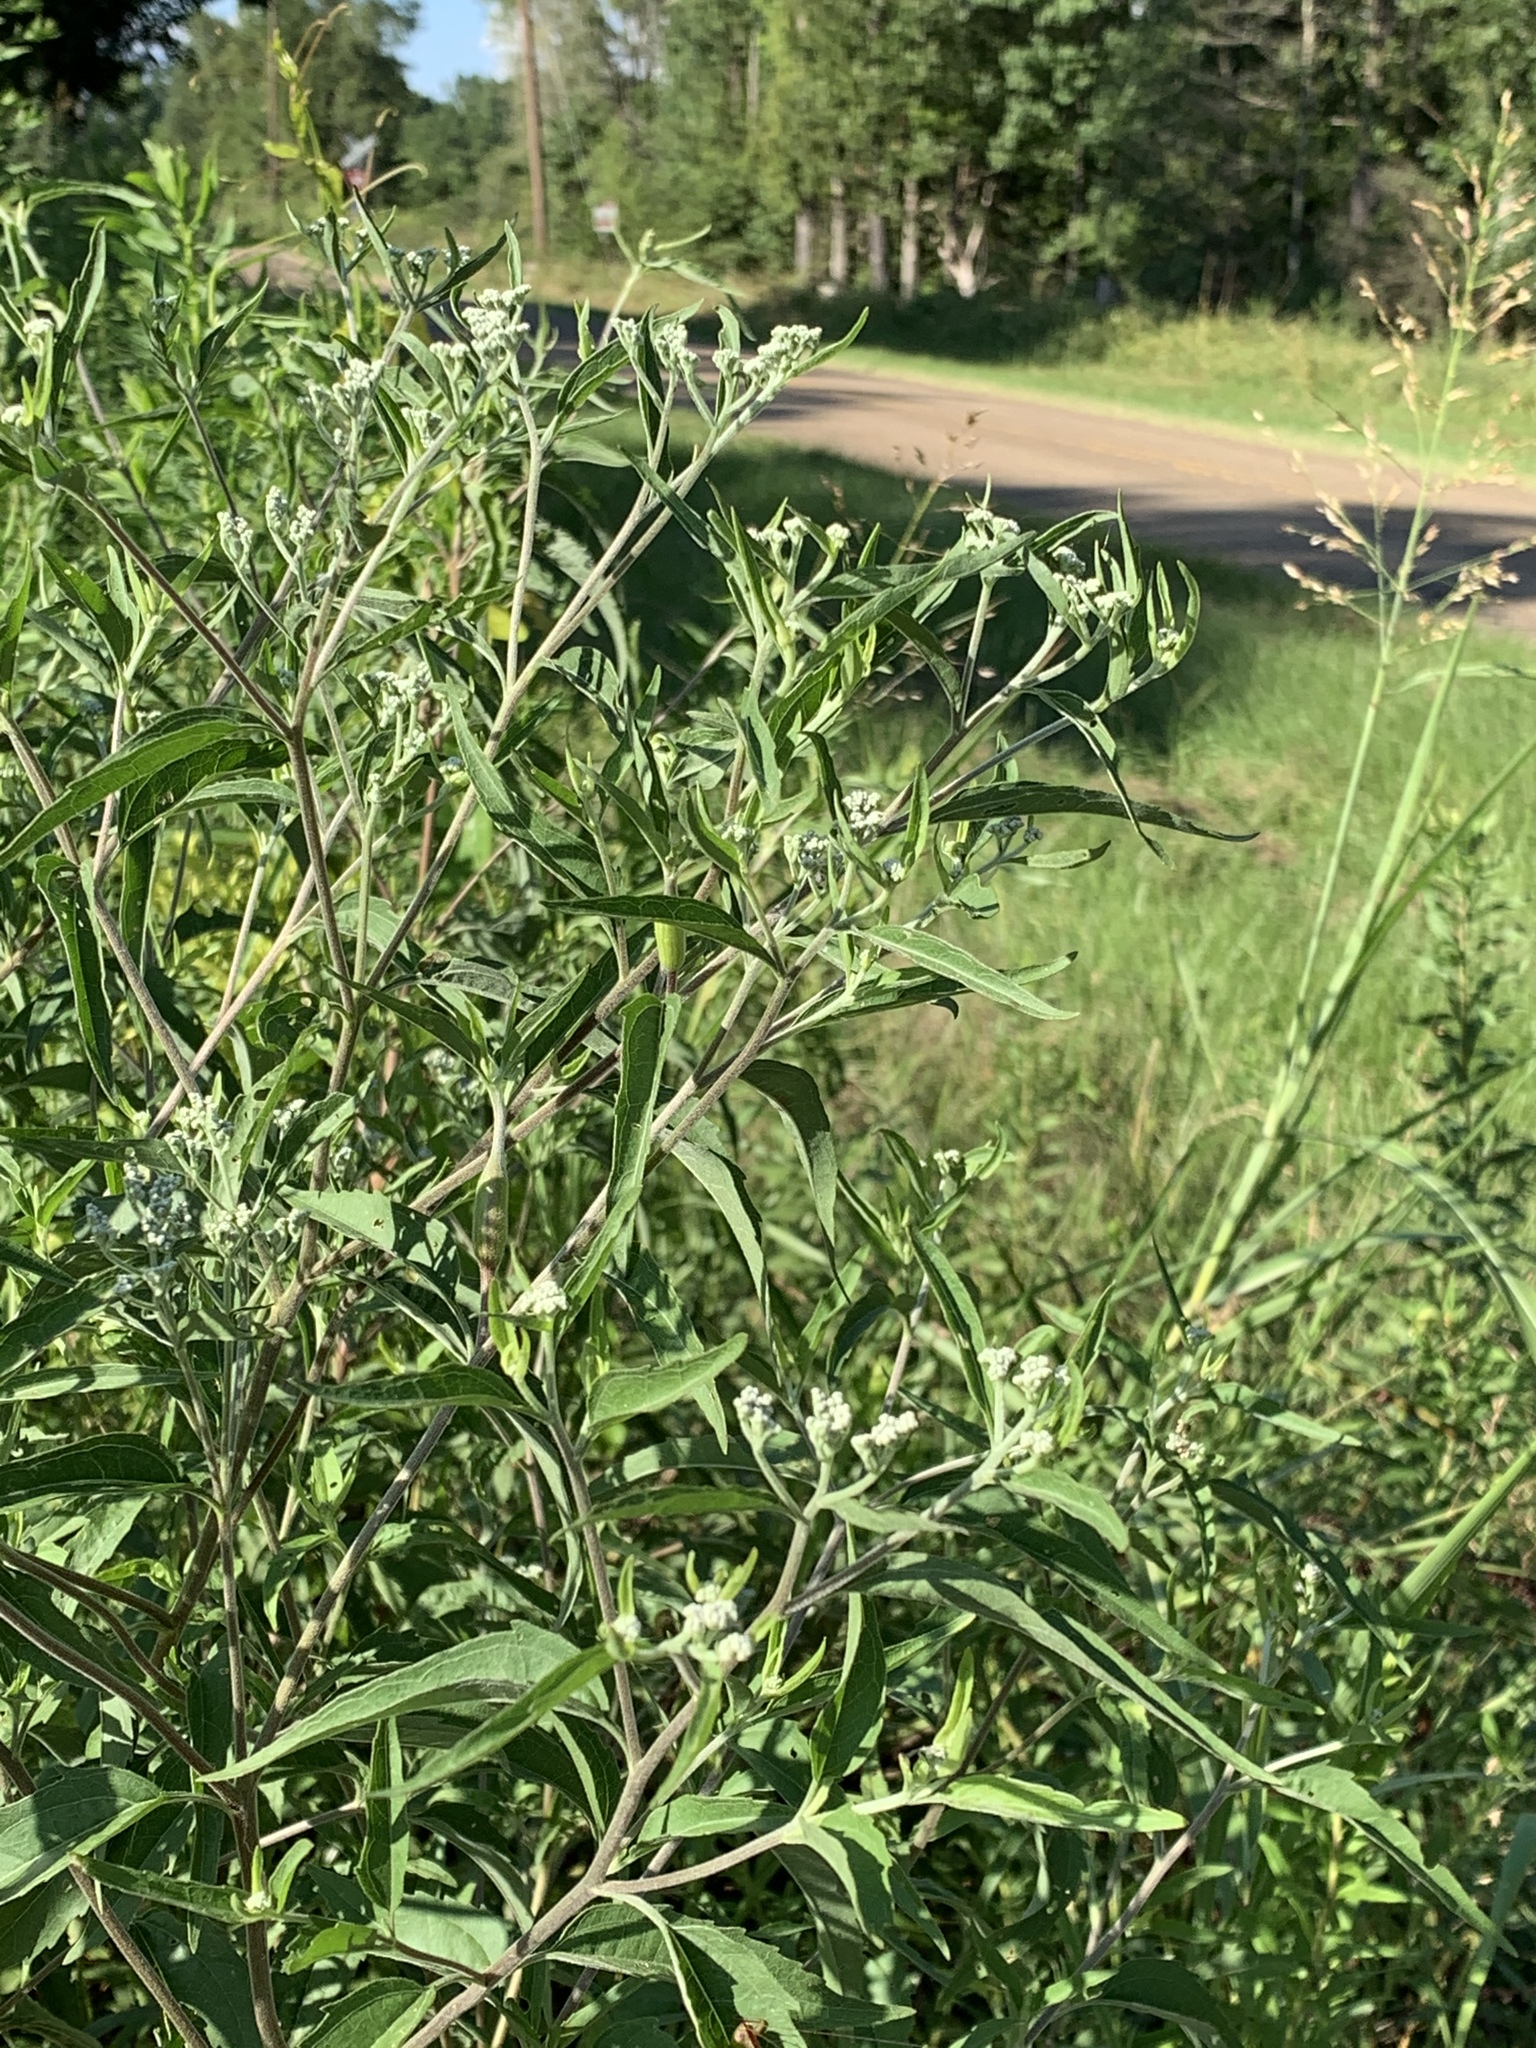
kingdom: Plantae
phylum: Tracheophyta
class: Magnoliopsida
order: Asterales
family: Asteraceae
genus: Eupatorium
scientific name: Eupatorium serotinum
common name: Late boneset
